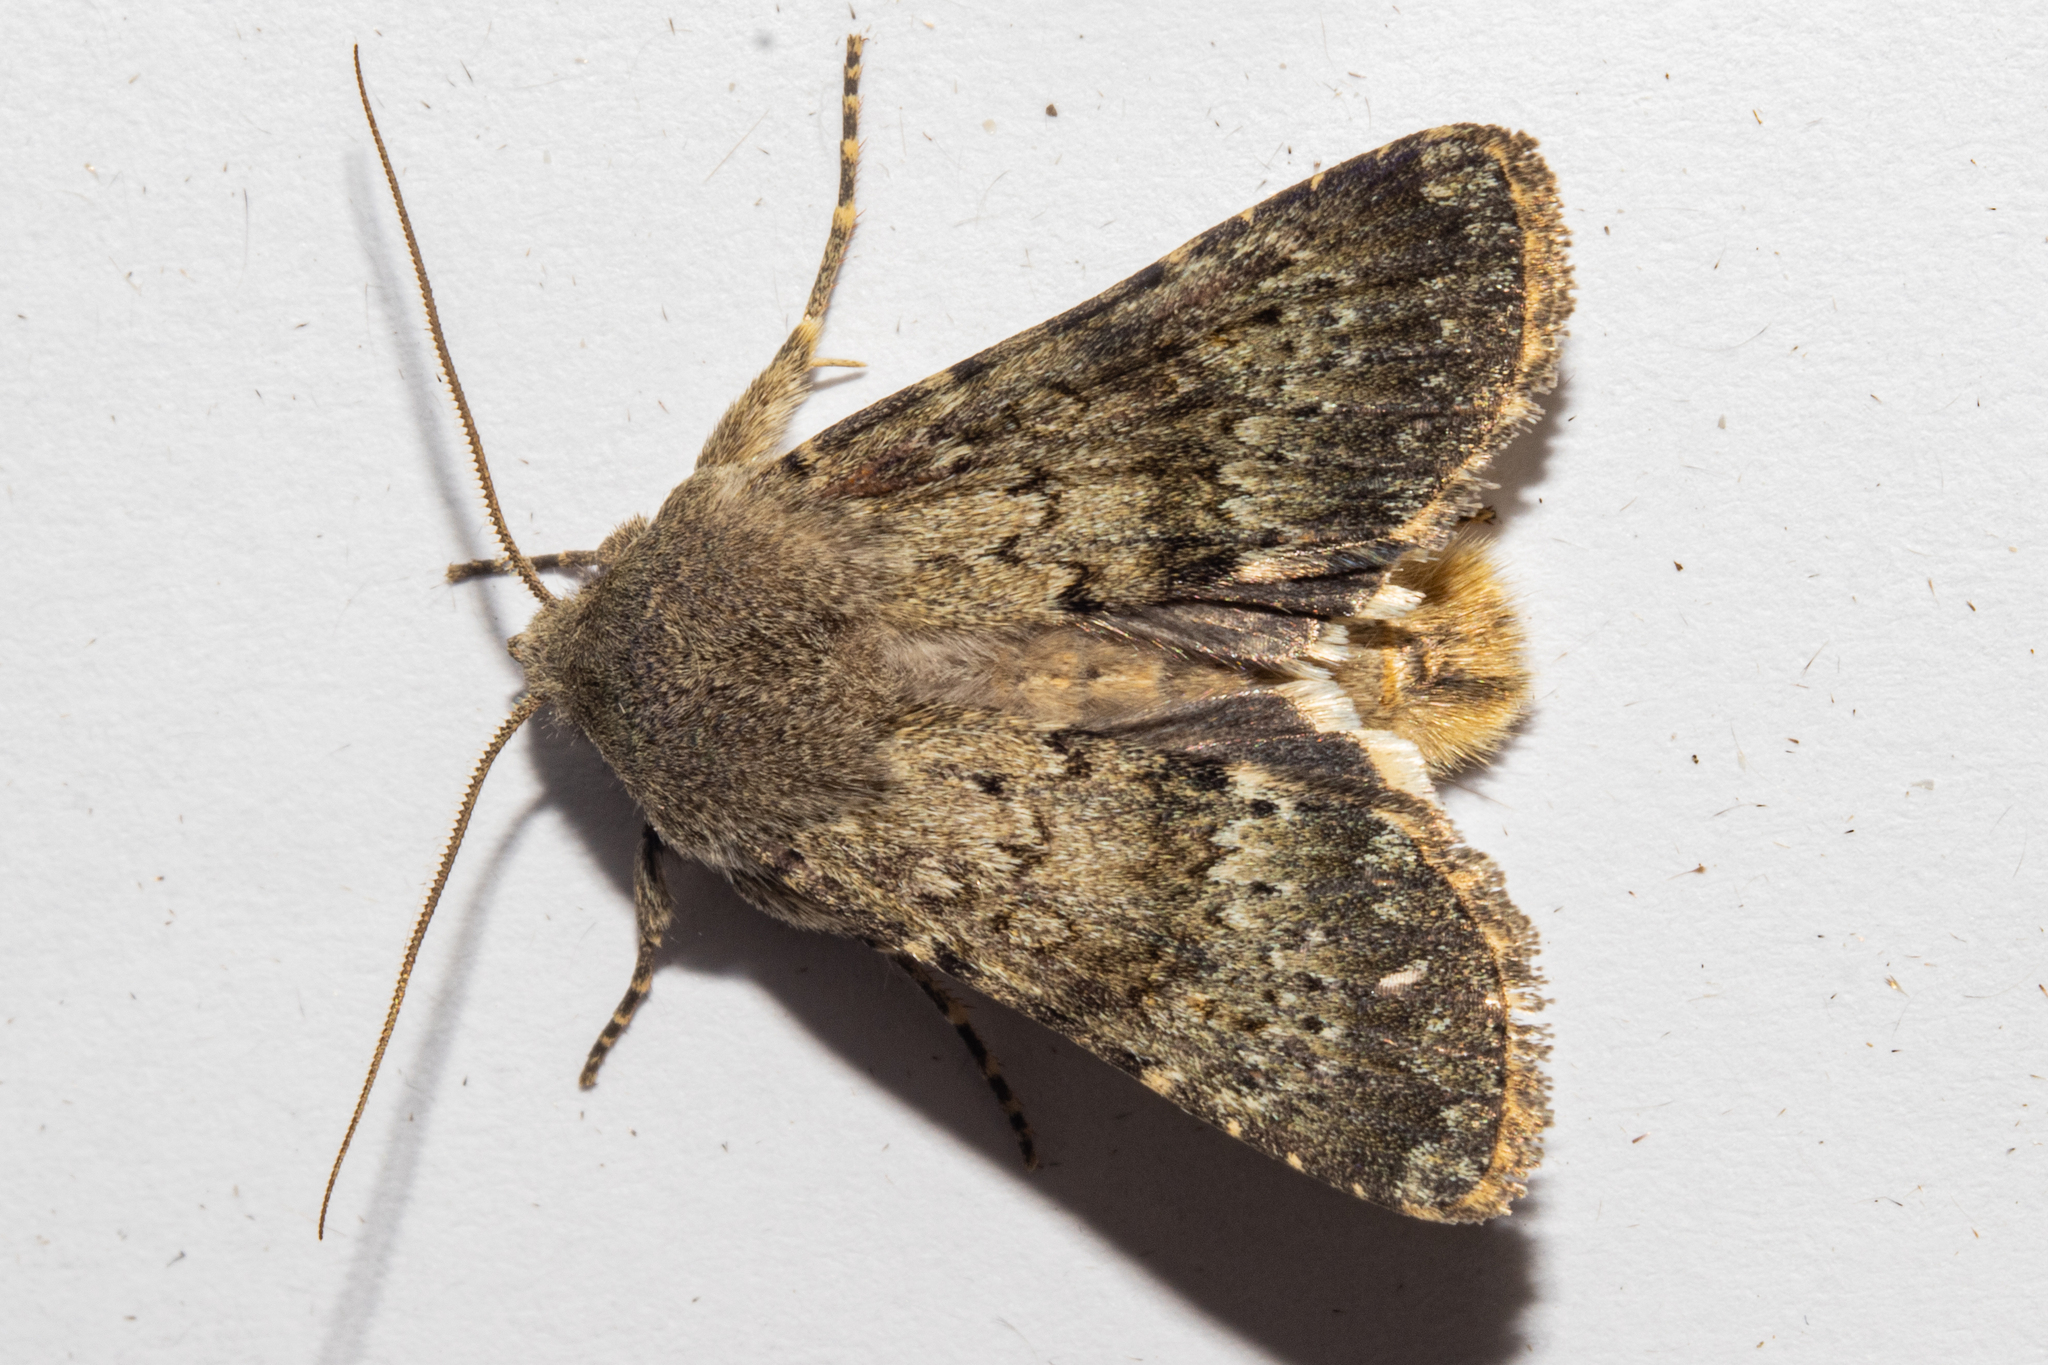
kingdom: Animalia
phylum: Arthropoda
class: Insecta
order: Lepidoptera
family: Noctuidae
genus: Ichneutica
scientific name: Ichneutica moderata
